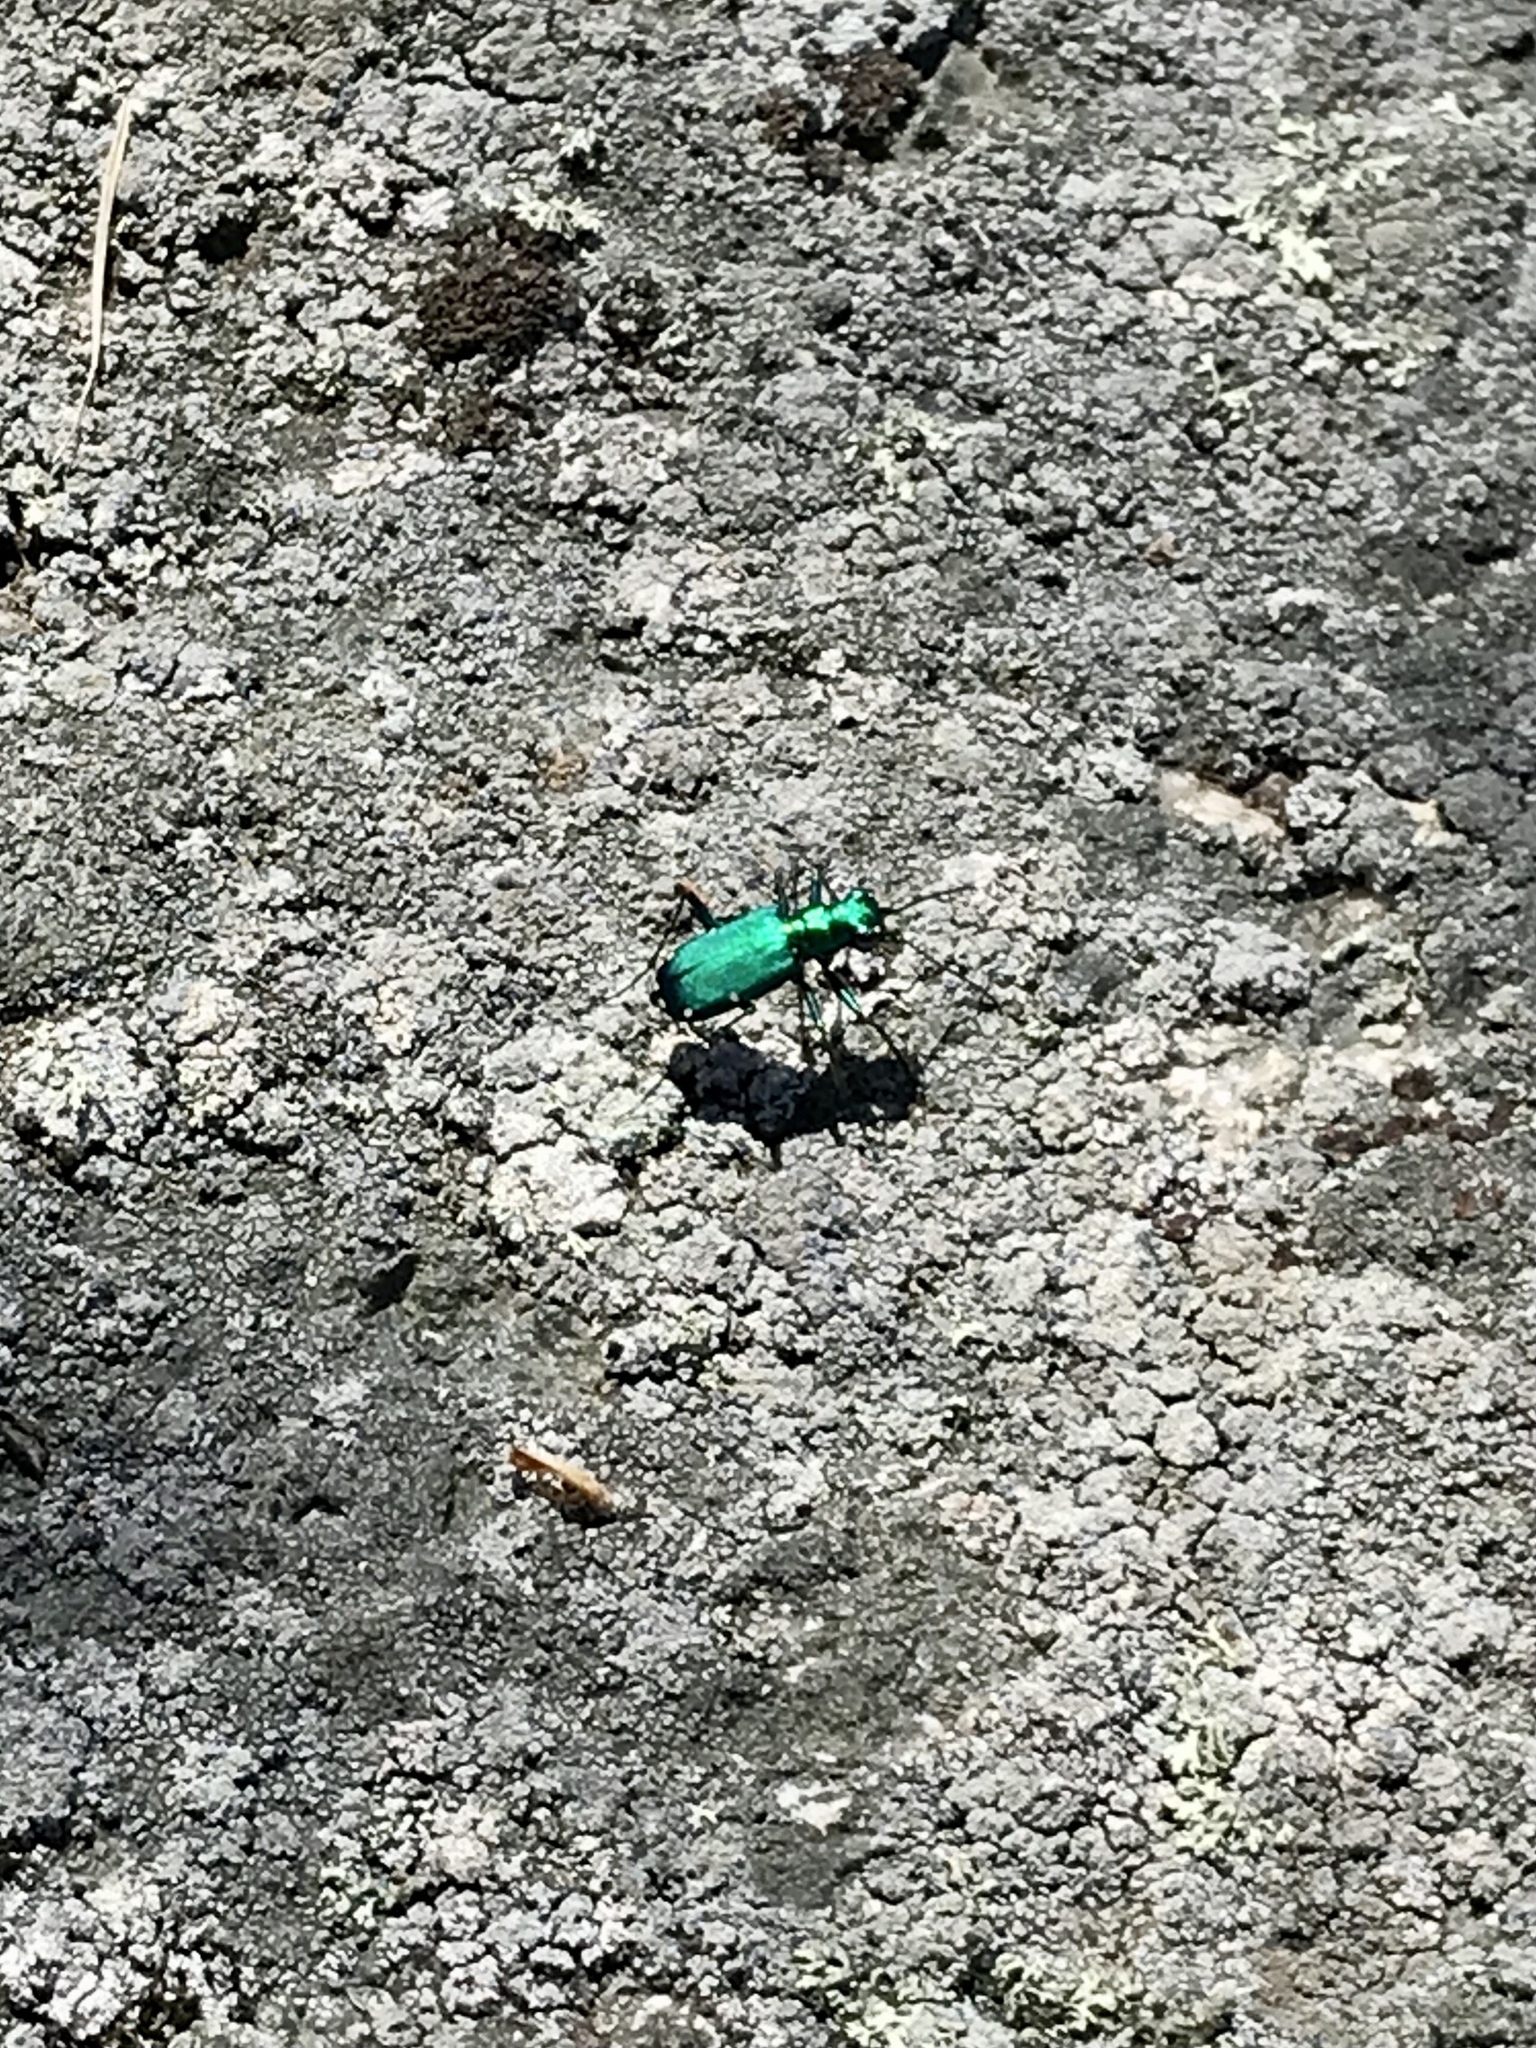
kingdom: Animalia
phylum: Arthropoda
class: Insecta
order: Coleoptera
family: Carabidae
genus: Cicindela
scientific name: Cicindela sexguttata
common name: Six-spotted tiger beetle
